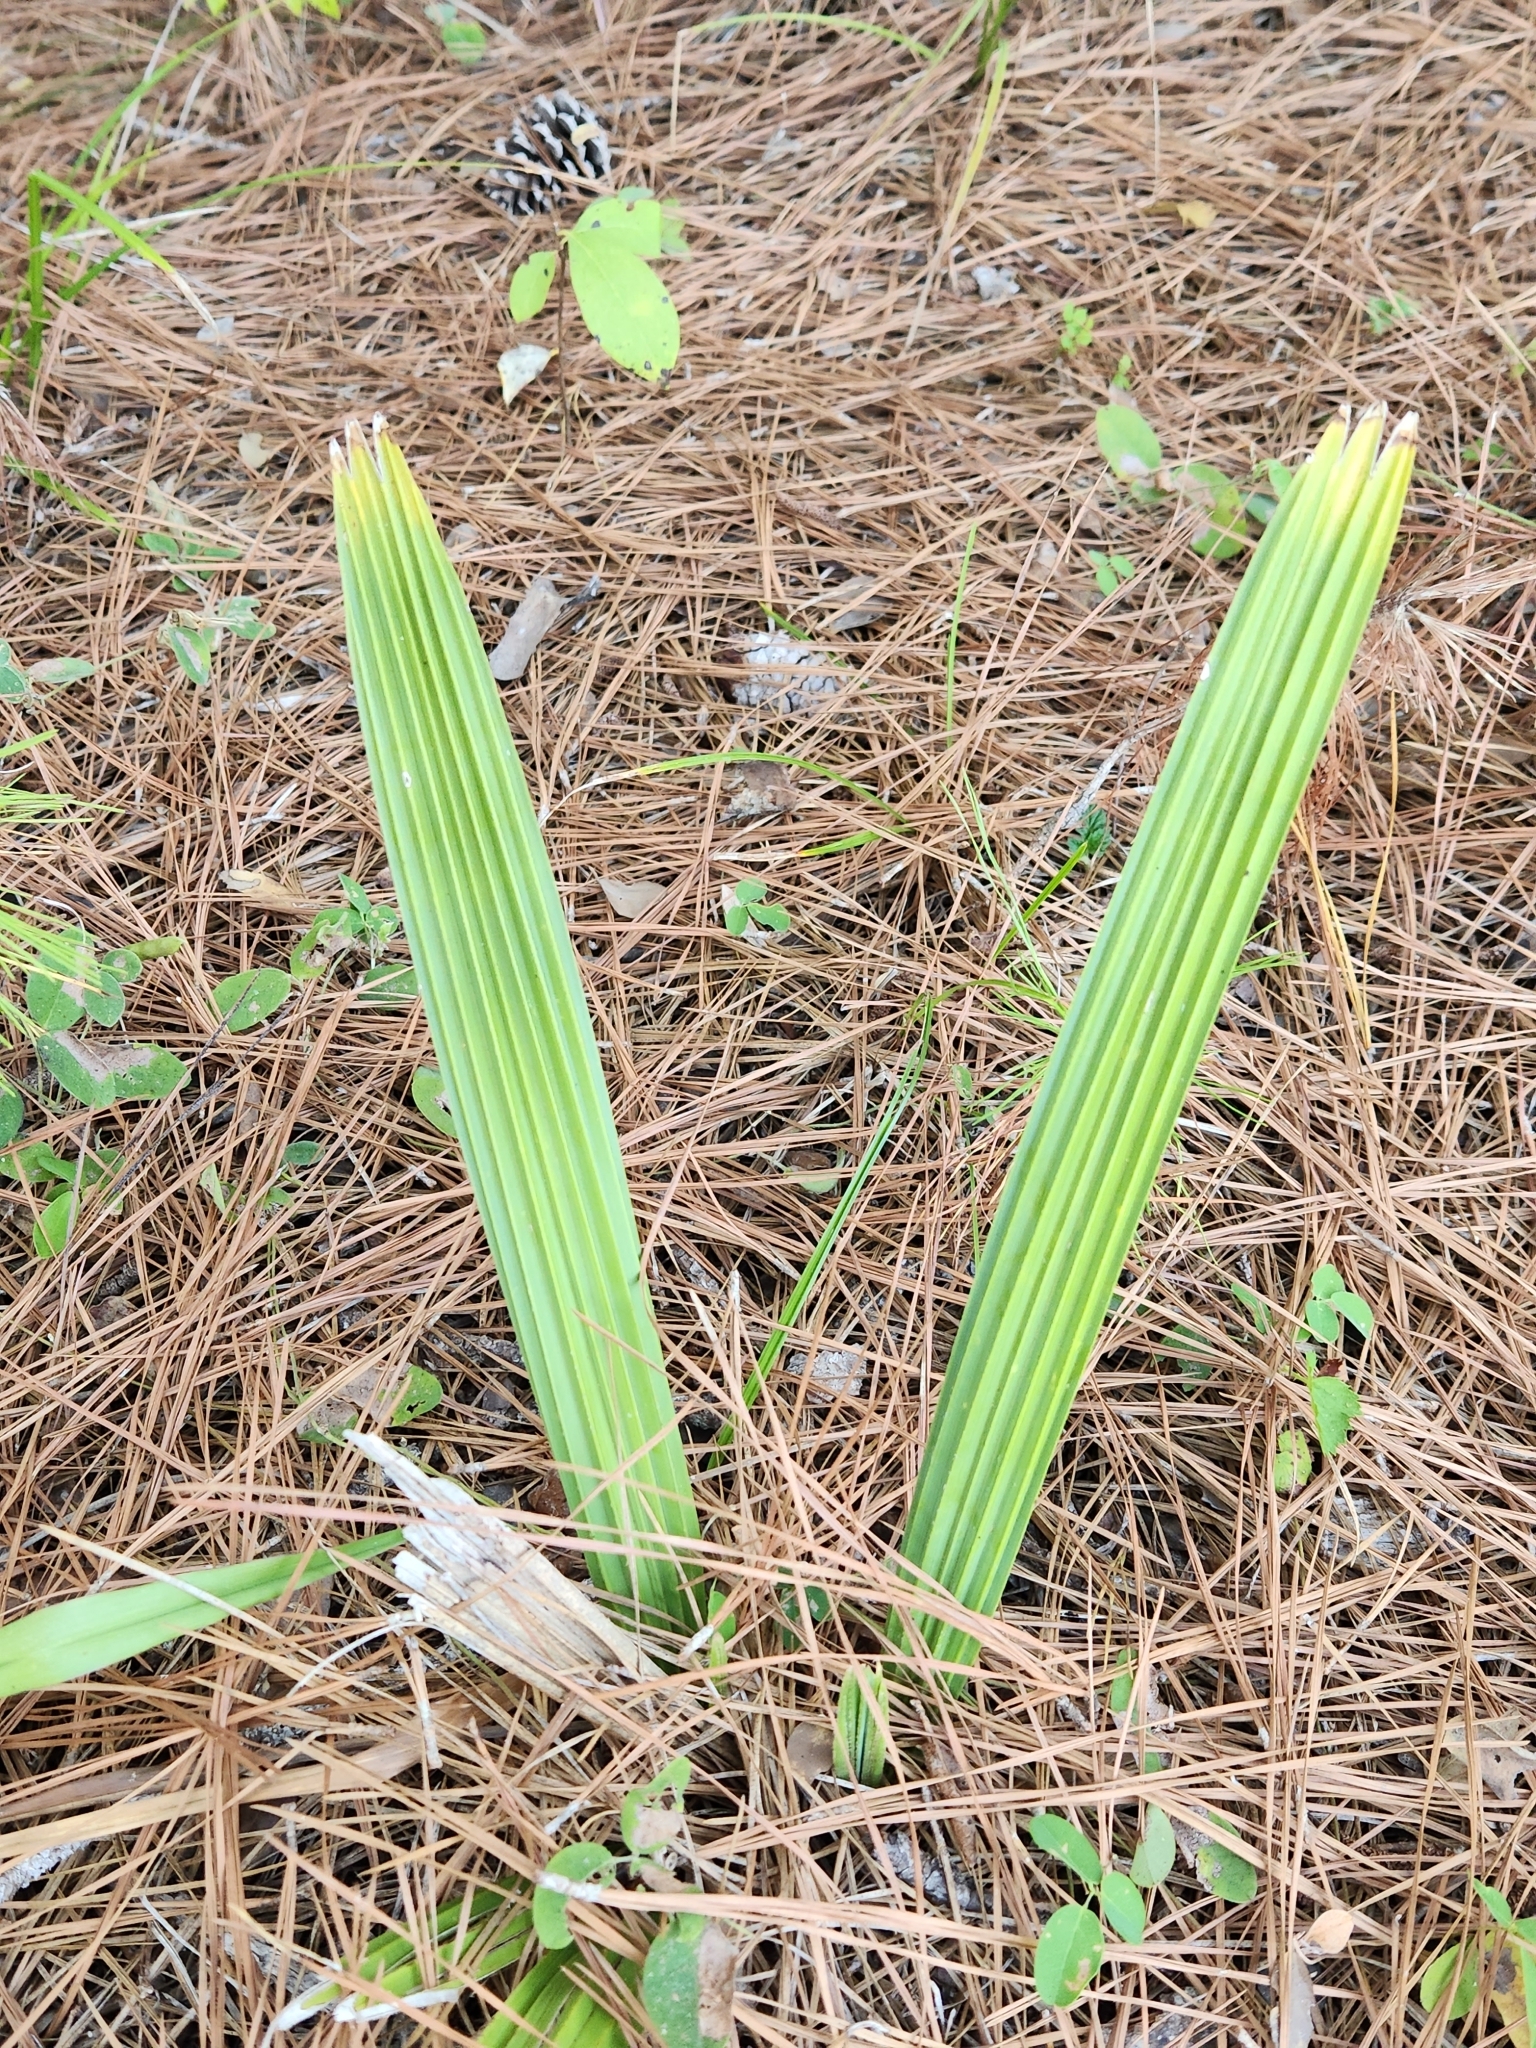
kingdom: Plantae
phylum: Tracheophyta
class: Liliopsida
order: Arecales
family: Arecaceae
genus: Sabal
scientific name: Sabal minor
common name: Dwarf palmetto
